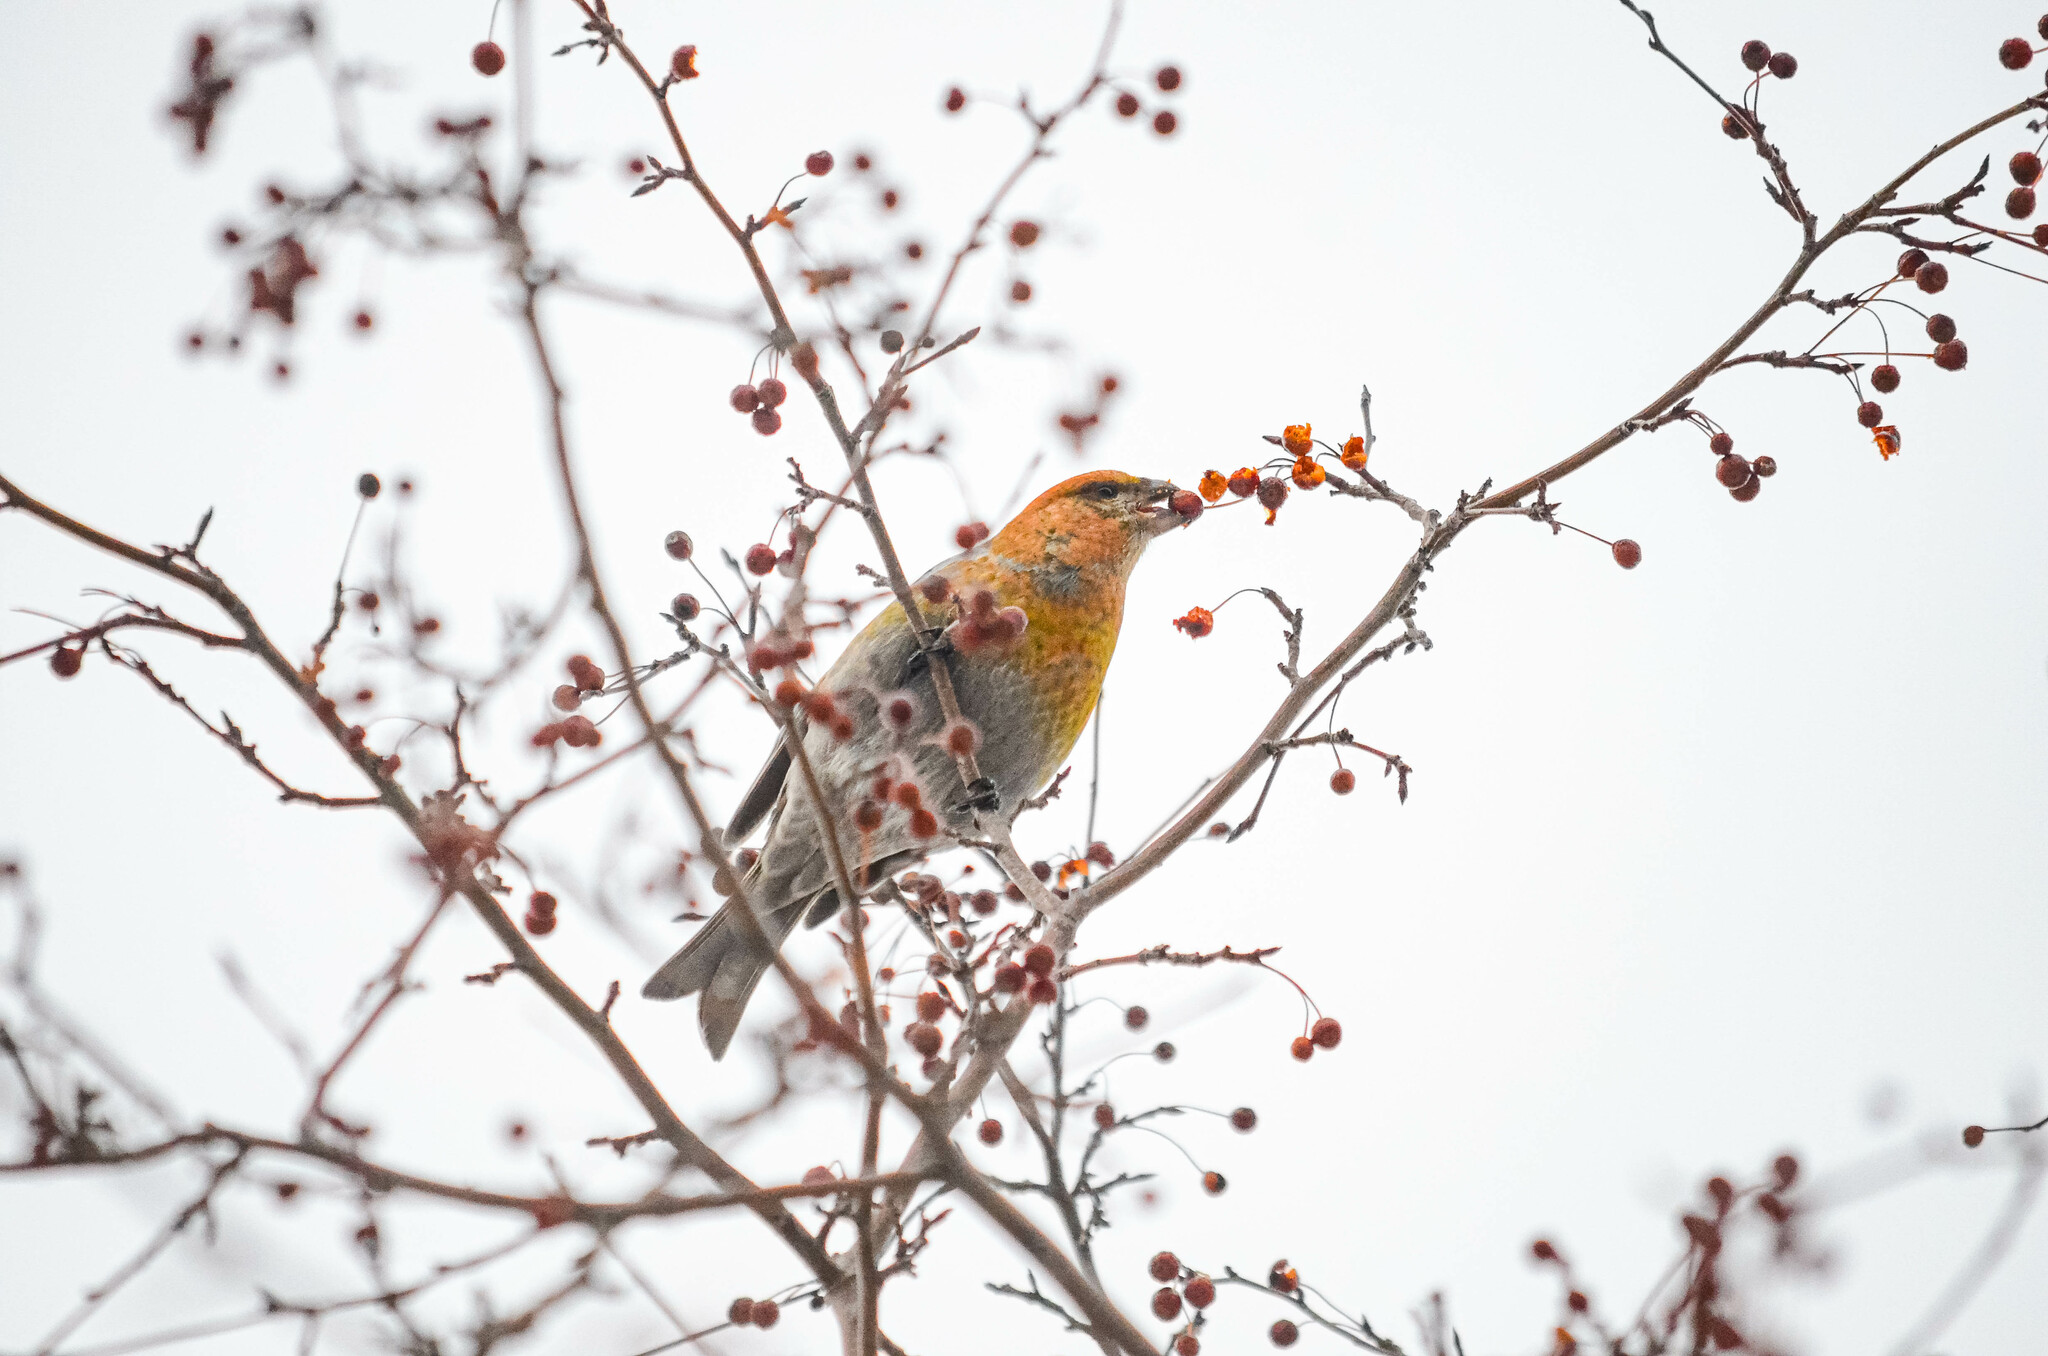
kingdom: Animalia
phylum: Chordata
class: Aves
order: Passeriformes
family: Fringillidae
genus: Pinicola
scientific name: Pinicola enucleator
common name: Pine grosbeak
